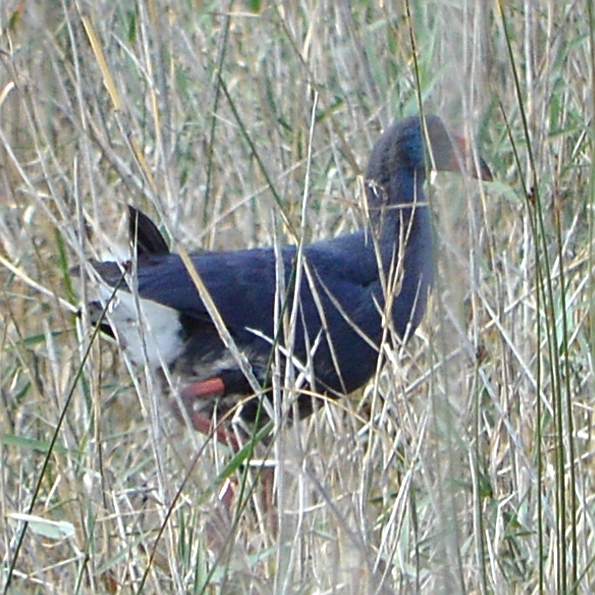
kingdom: Animalia
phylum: Chordata
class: Aves
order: Gruiformes
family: Rallidae
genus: Porphyrio
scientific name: Porphyrio porphyrio
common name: Purple swamphen
